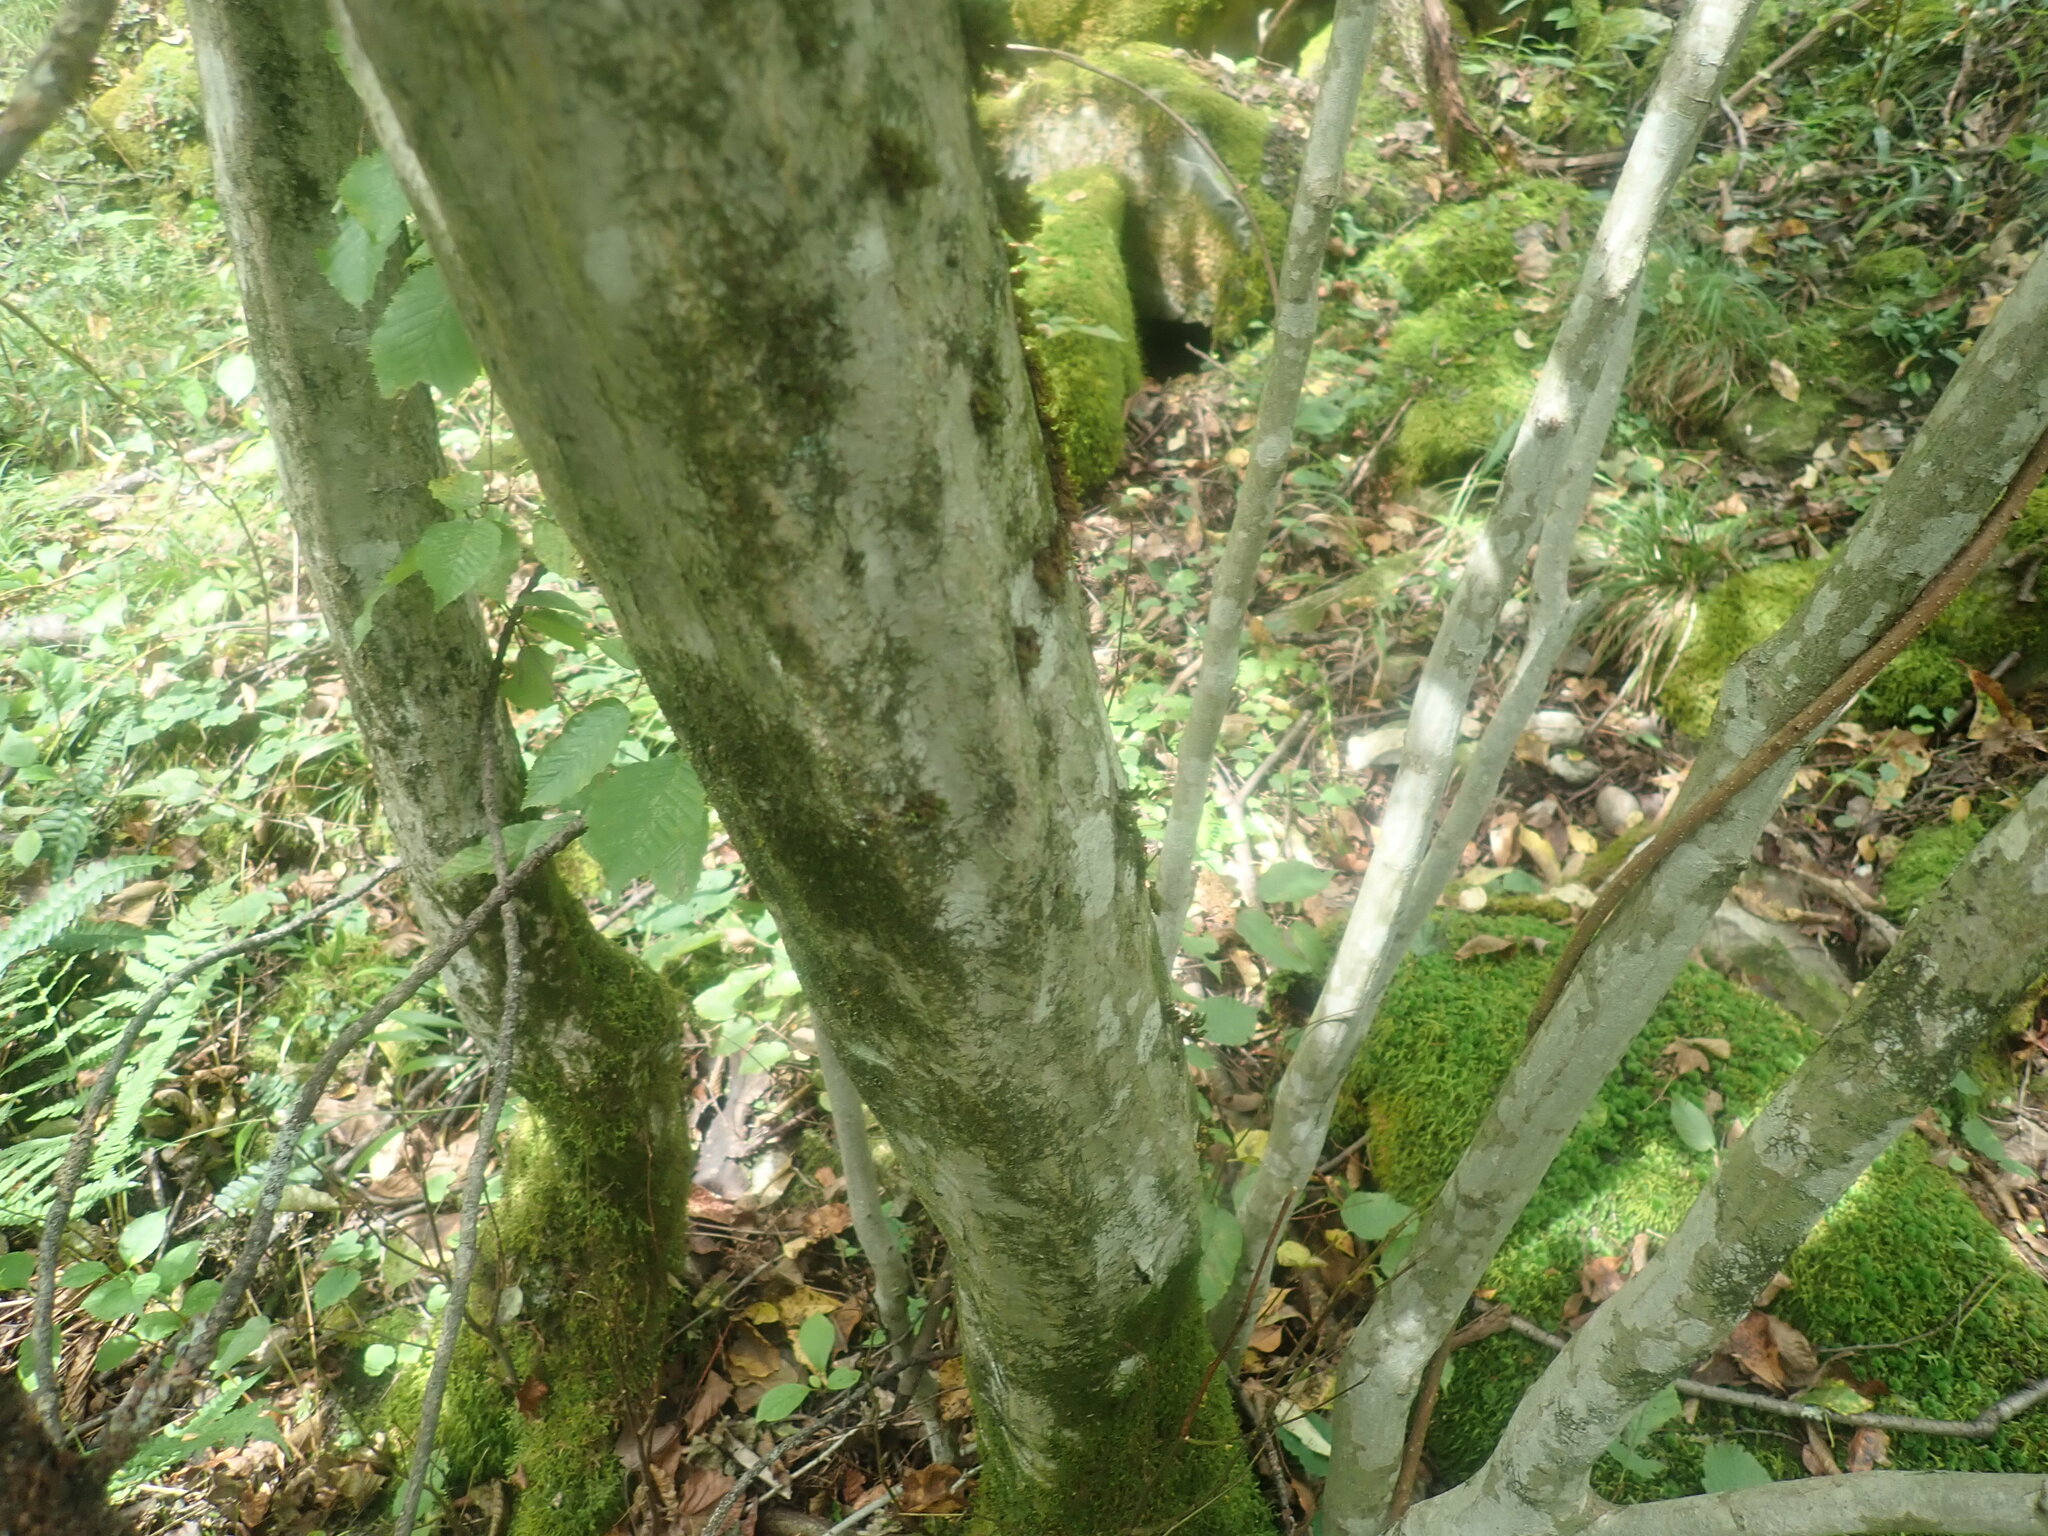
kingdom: Plantae
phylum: Tracheophyta
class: Magnoliopsida
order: Fagales
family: Betulaceae
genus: Carpinus
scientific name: Carpinus caroliniana
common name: American hornbeam
